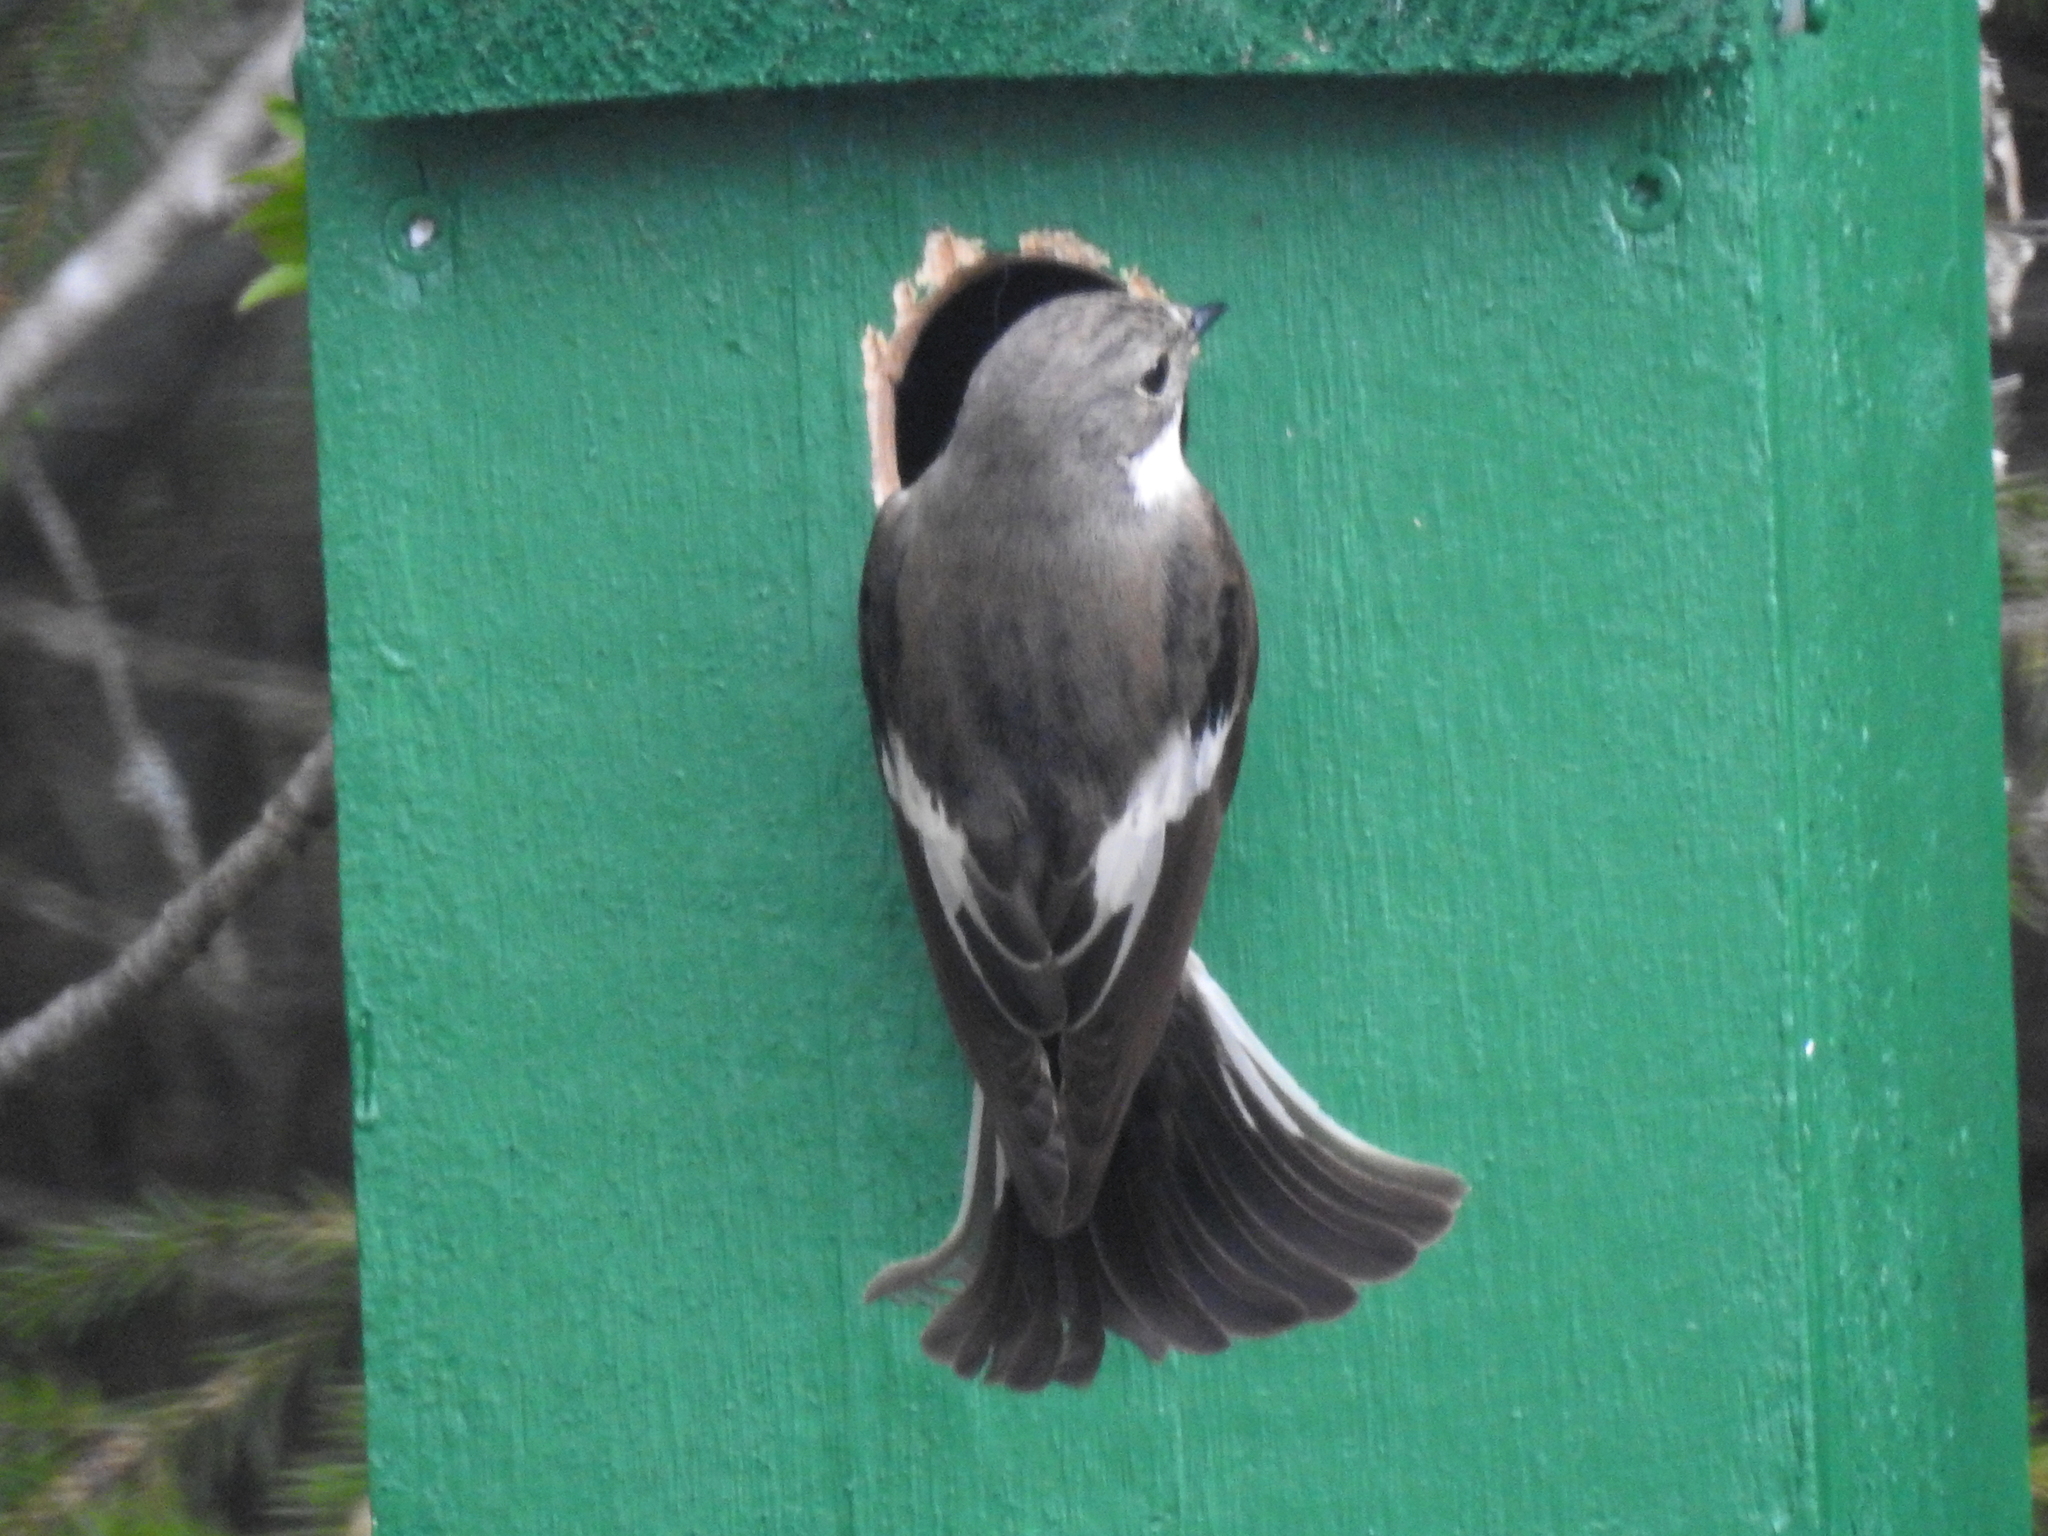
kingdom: Animalia
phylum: Chordata
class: Aves
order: Passeriformes
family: Muscicapidae
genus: Ficedula
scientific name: Ficedula hypoleuca
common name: European pied flycatcher
